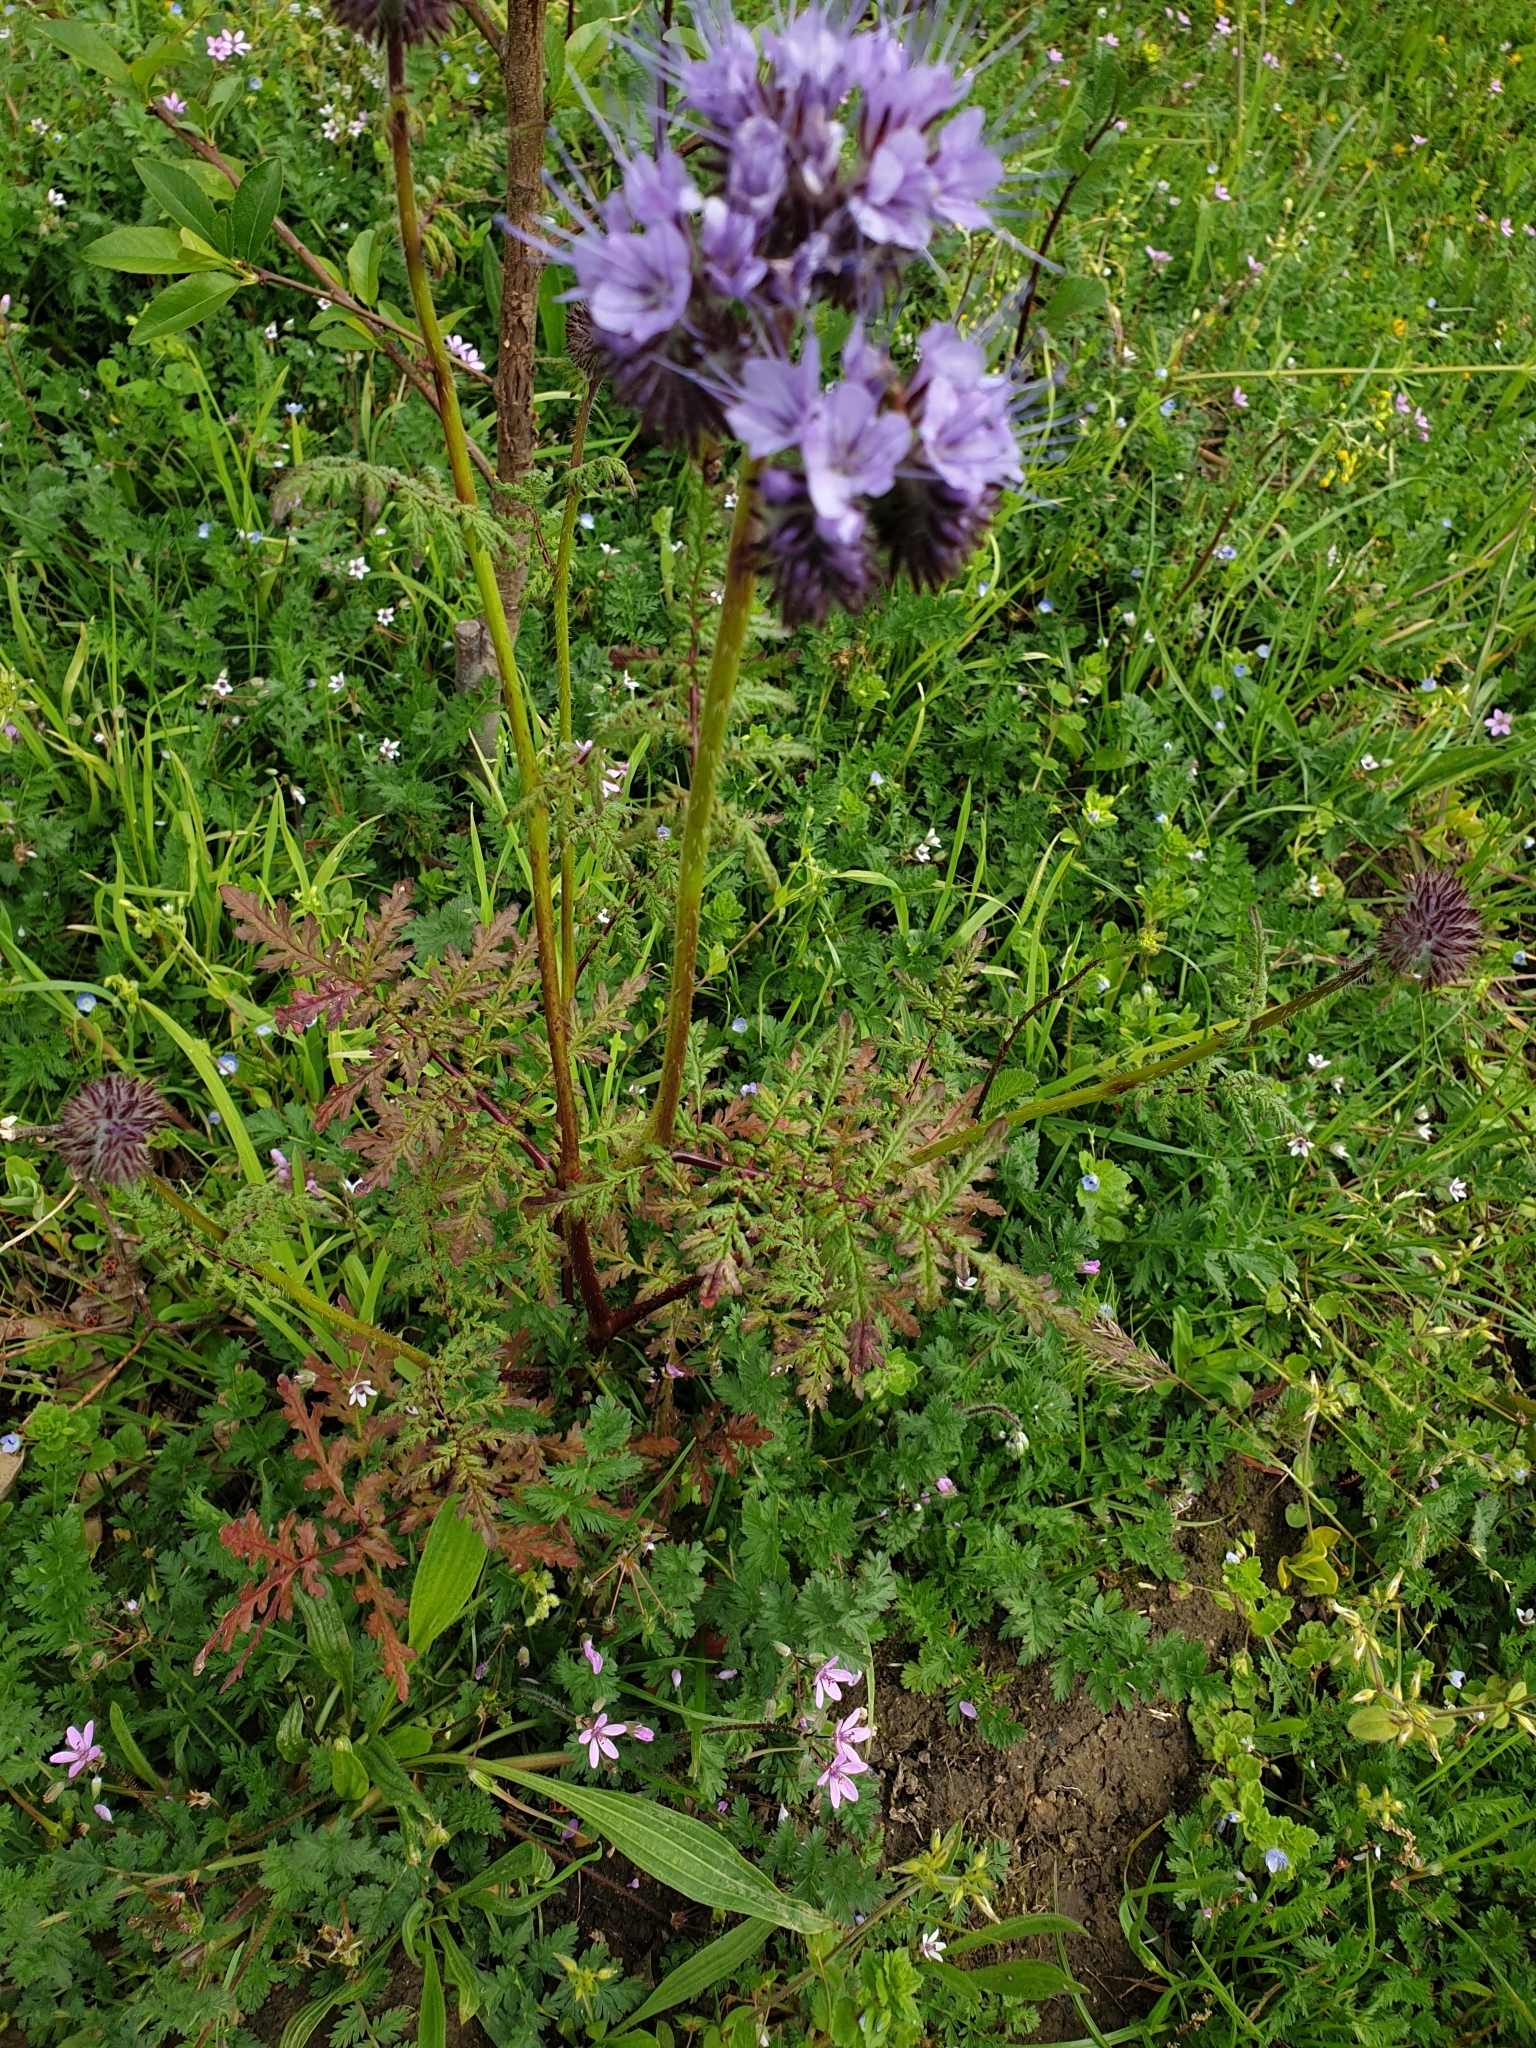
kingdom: Plantae
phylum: Tracheophyta
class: Magnoliopsida
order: Boraginales
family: Hydrophyllaceae
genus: Phacelia
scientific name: Phacelia tanacetifolia
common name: Phacelia
